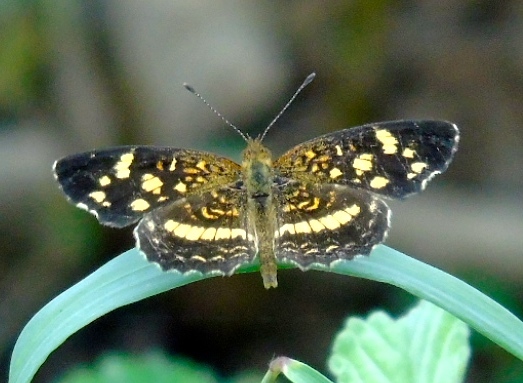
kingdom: Animalia
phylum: Arthropoda
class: Insecta
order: Lepidoptera
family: Nymphalidae
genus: Anthanassa
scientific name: Anthanassa tulcis
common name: Pale-banded crescent
